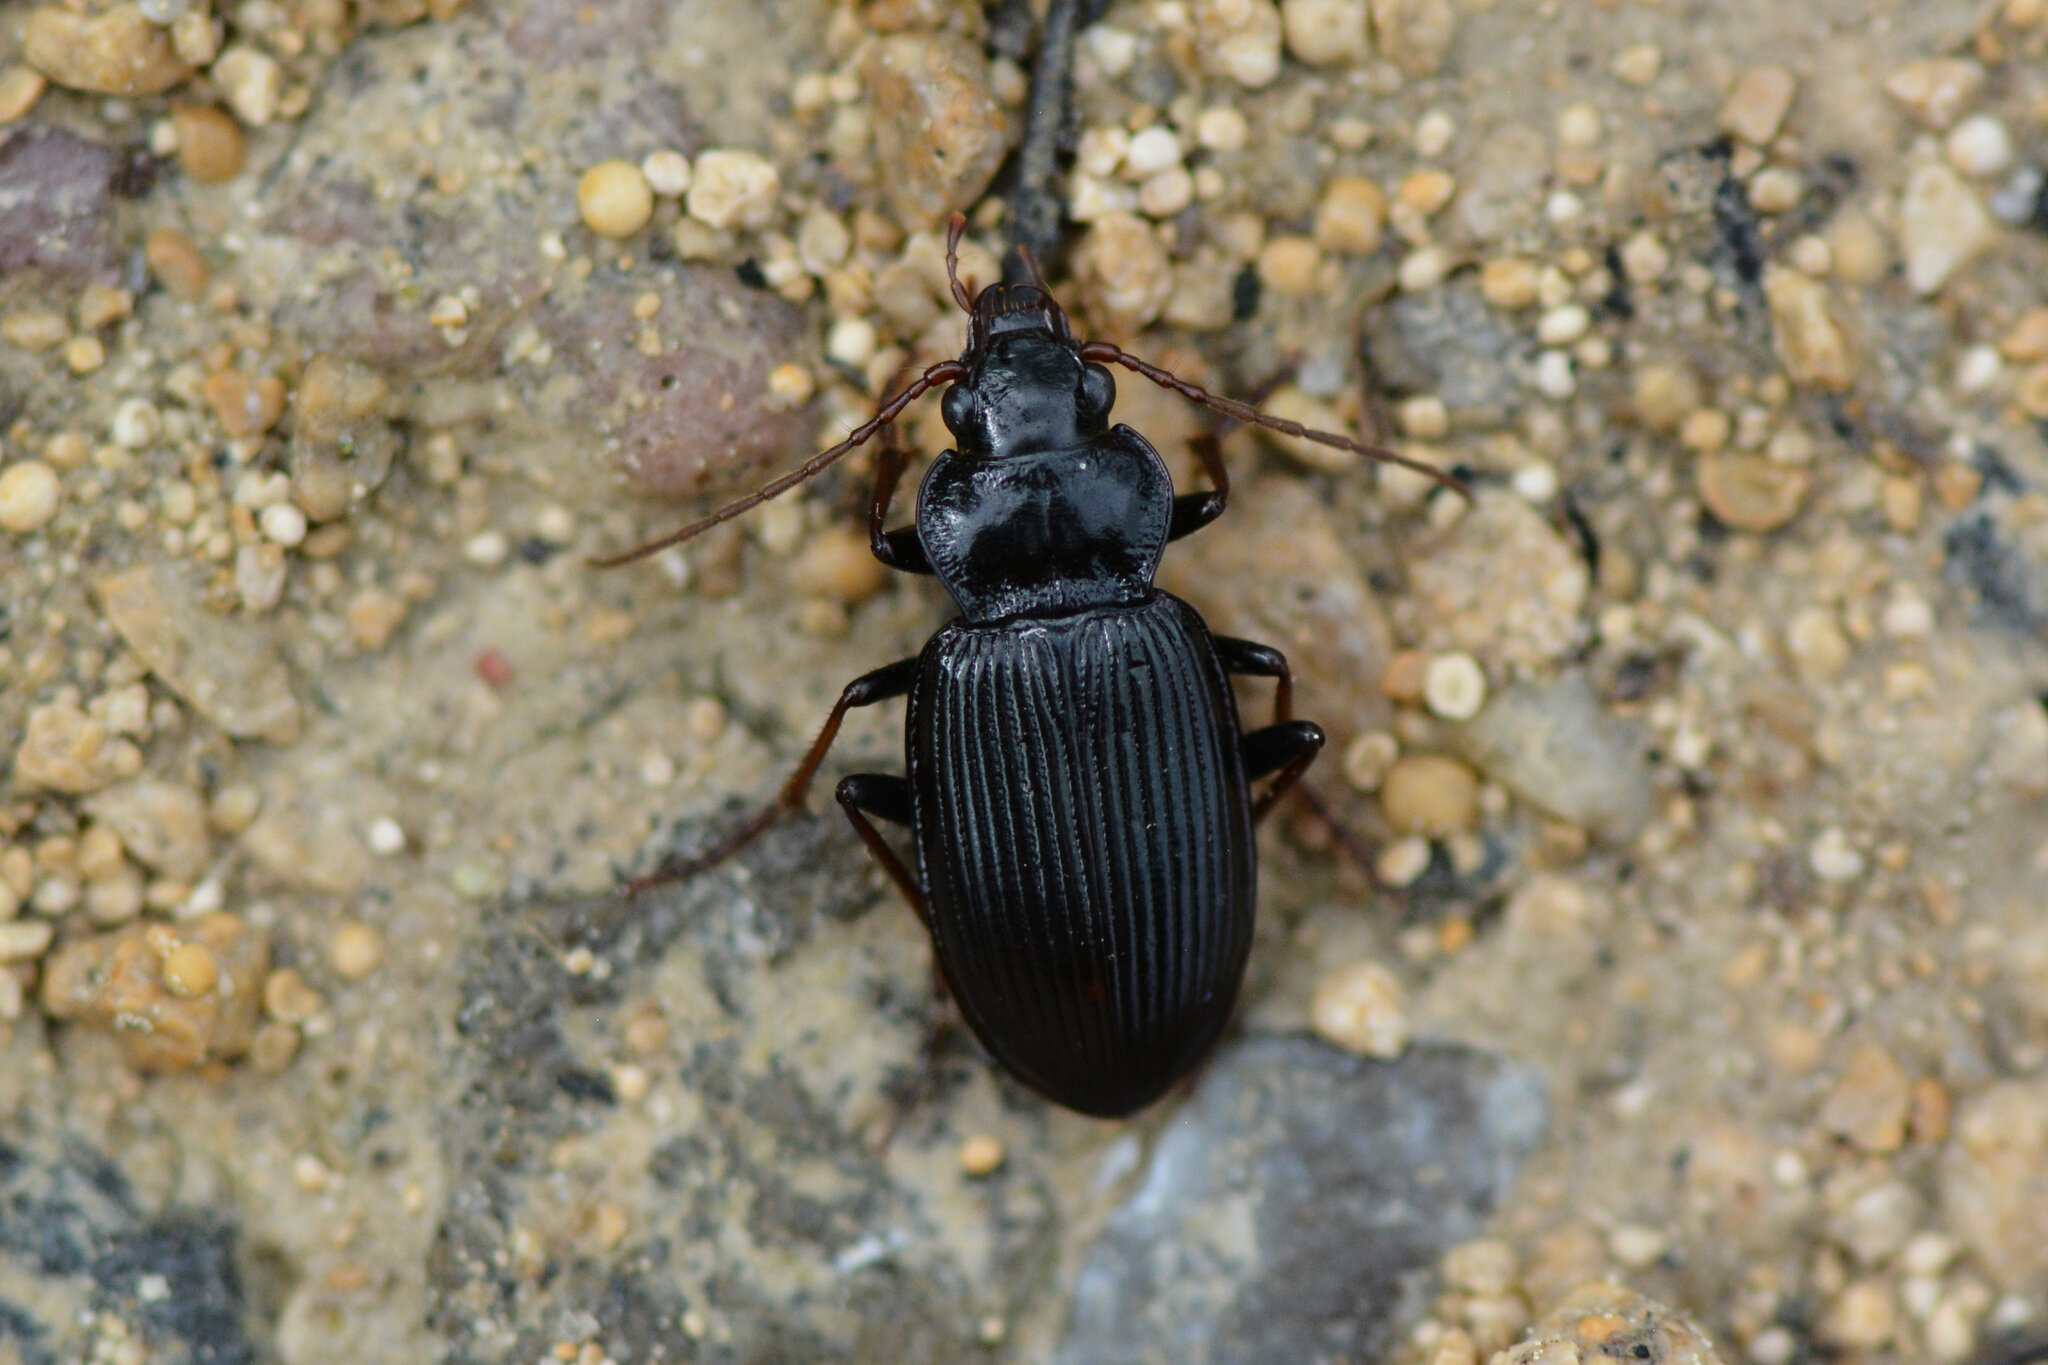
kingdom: Animalia
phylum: Arthropoda
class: Insecta
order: Coleoptera
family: Carabidae
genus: Nebria
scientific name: Nebria brevicollis
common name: Short-necked gazelle beetle
